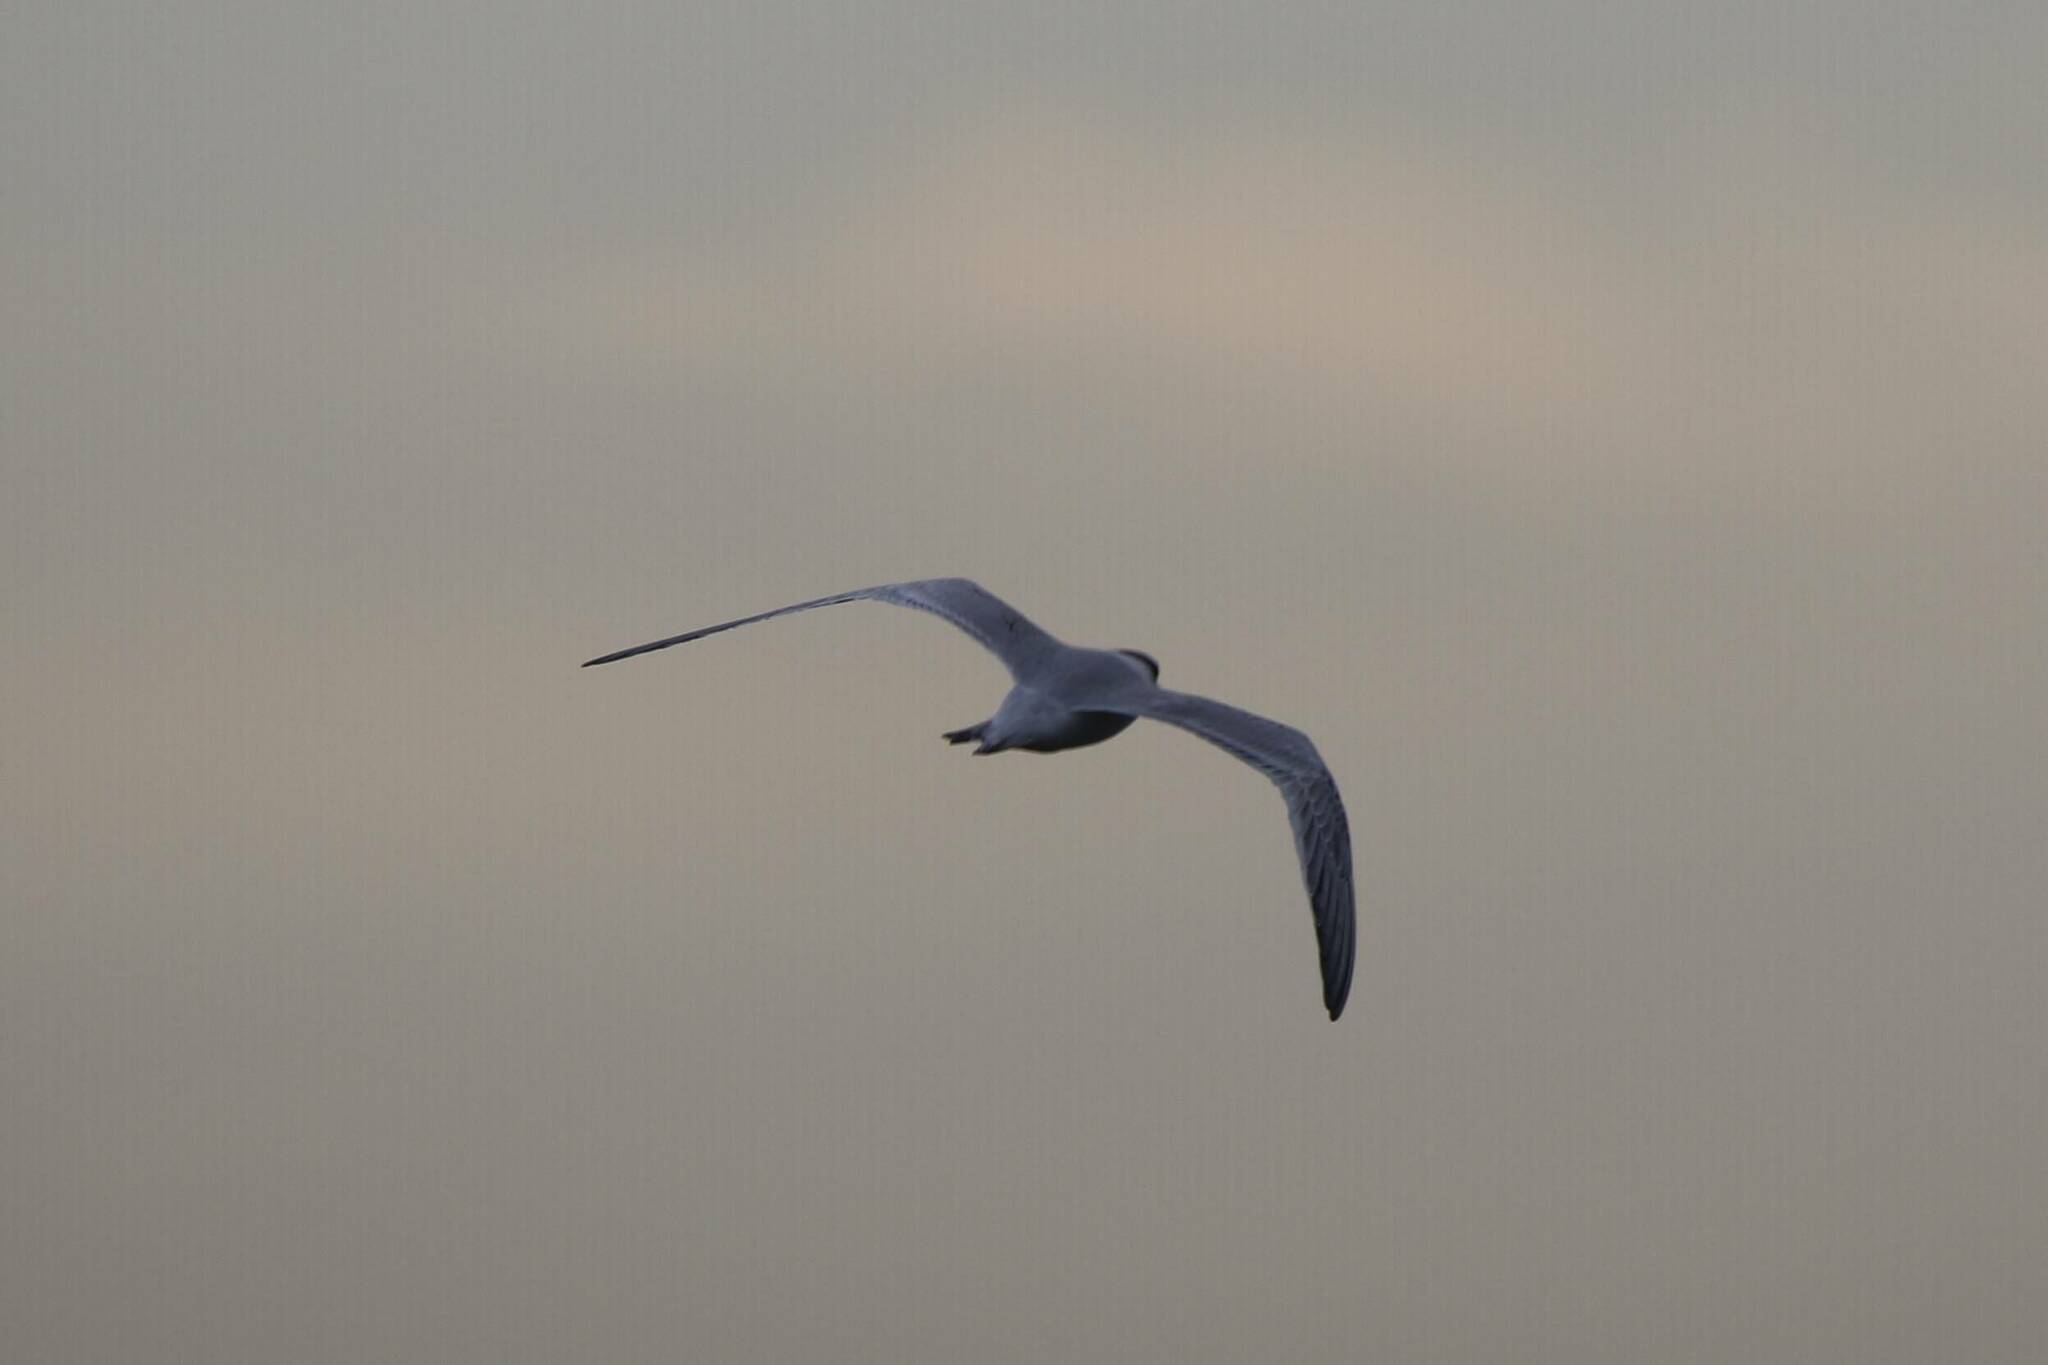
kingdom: Animalia
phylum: Chordata
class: Aves
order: Charadriiformes
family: Laridae
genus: Thalasseus
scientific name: Thalasseus sandvicensis
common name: Sandwich tern
